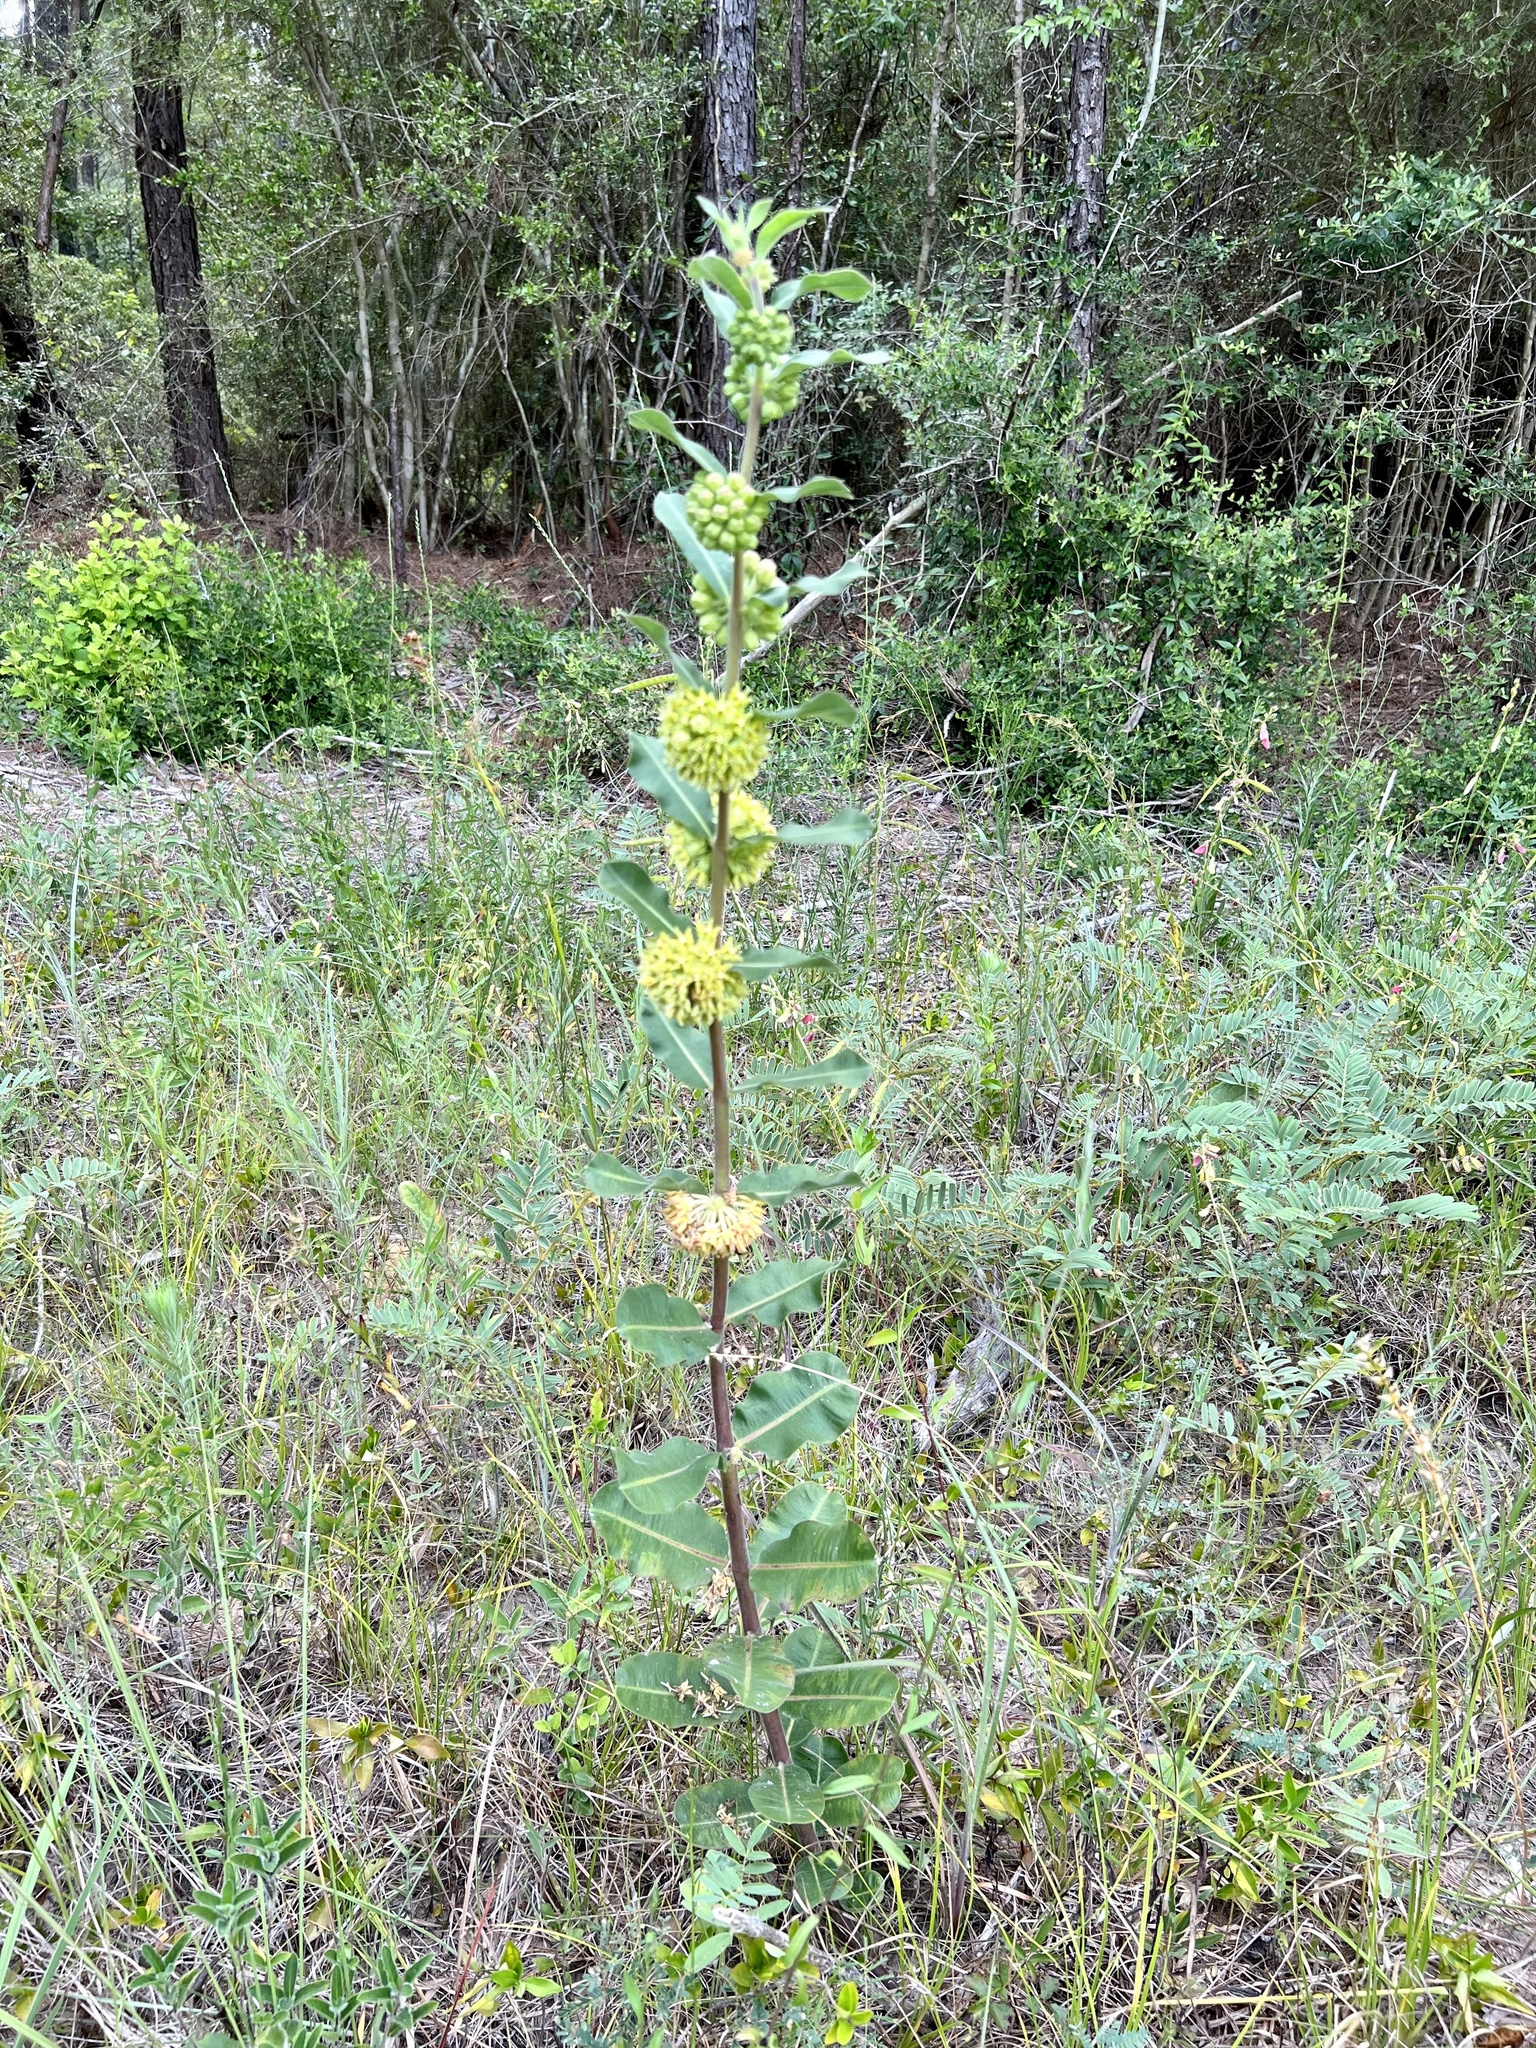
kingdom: Plantae
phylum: Tracheophyta
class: Magnoliopsida
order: Gentianales
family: Apocynaceae
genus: Asclepias
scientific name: Asclepias obovata
